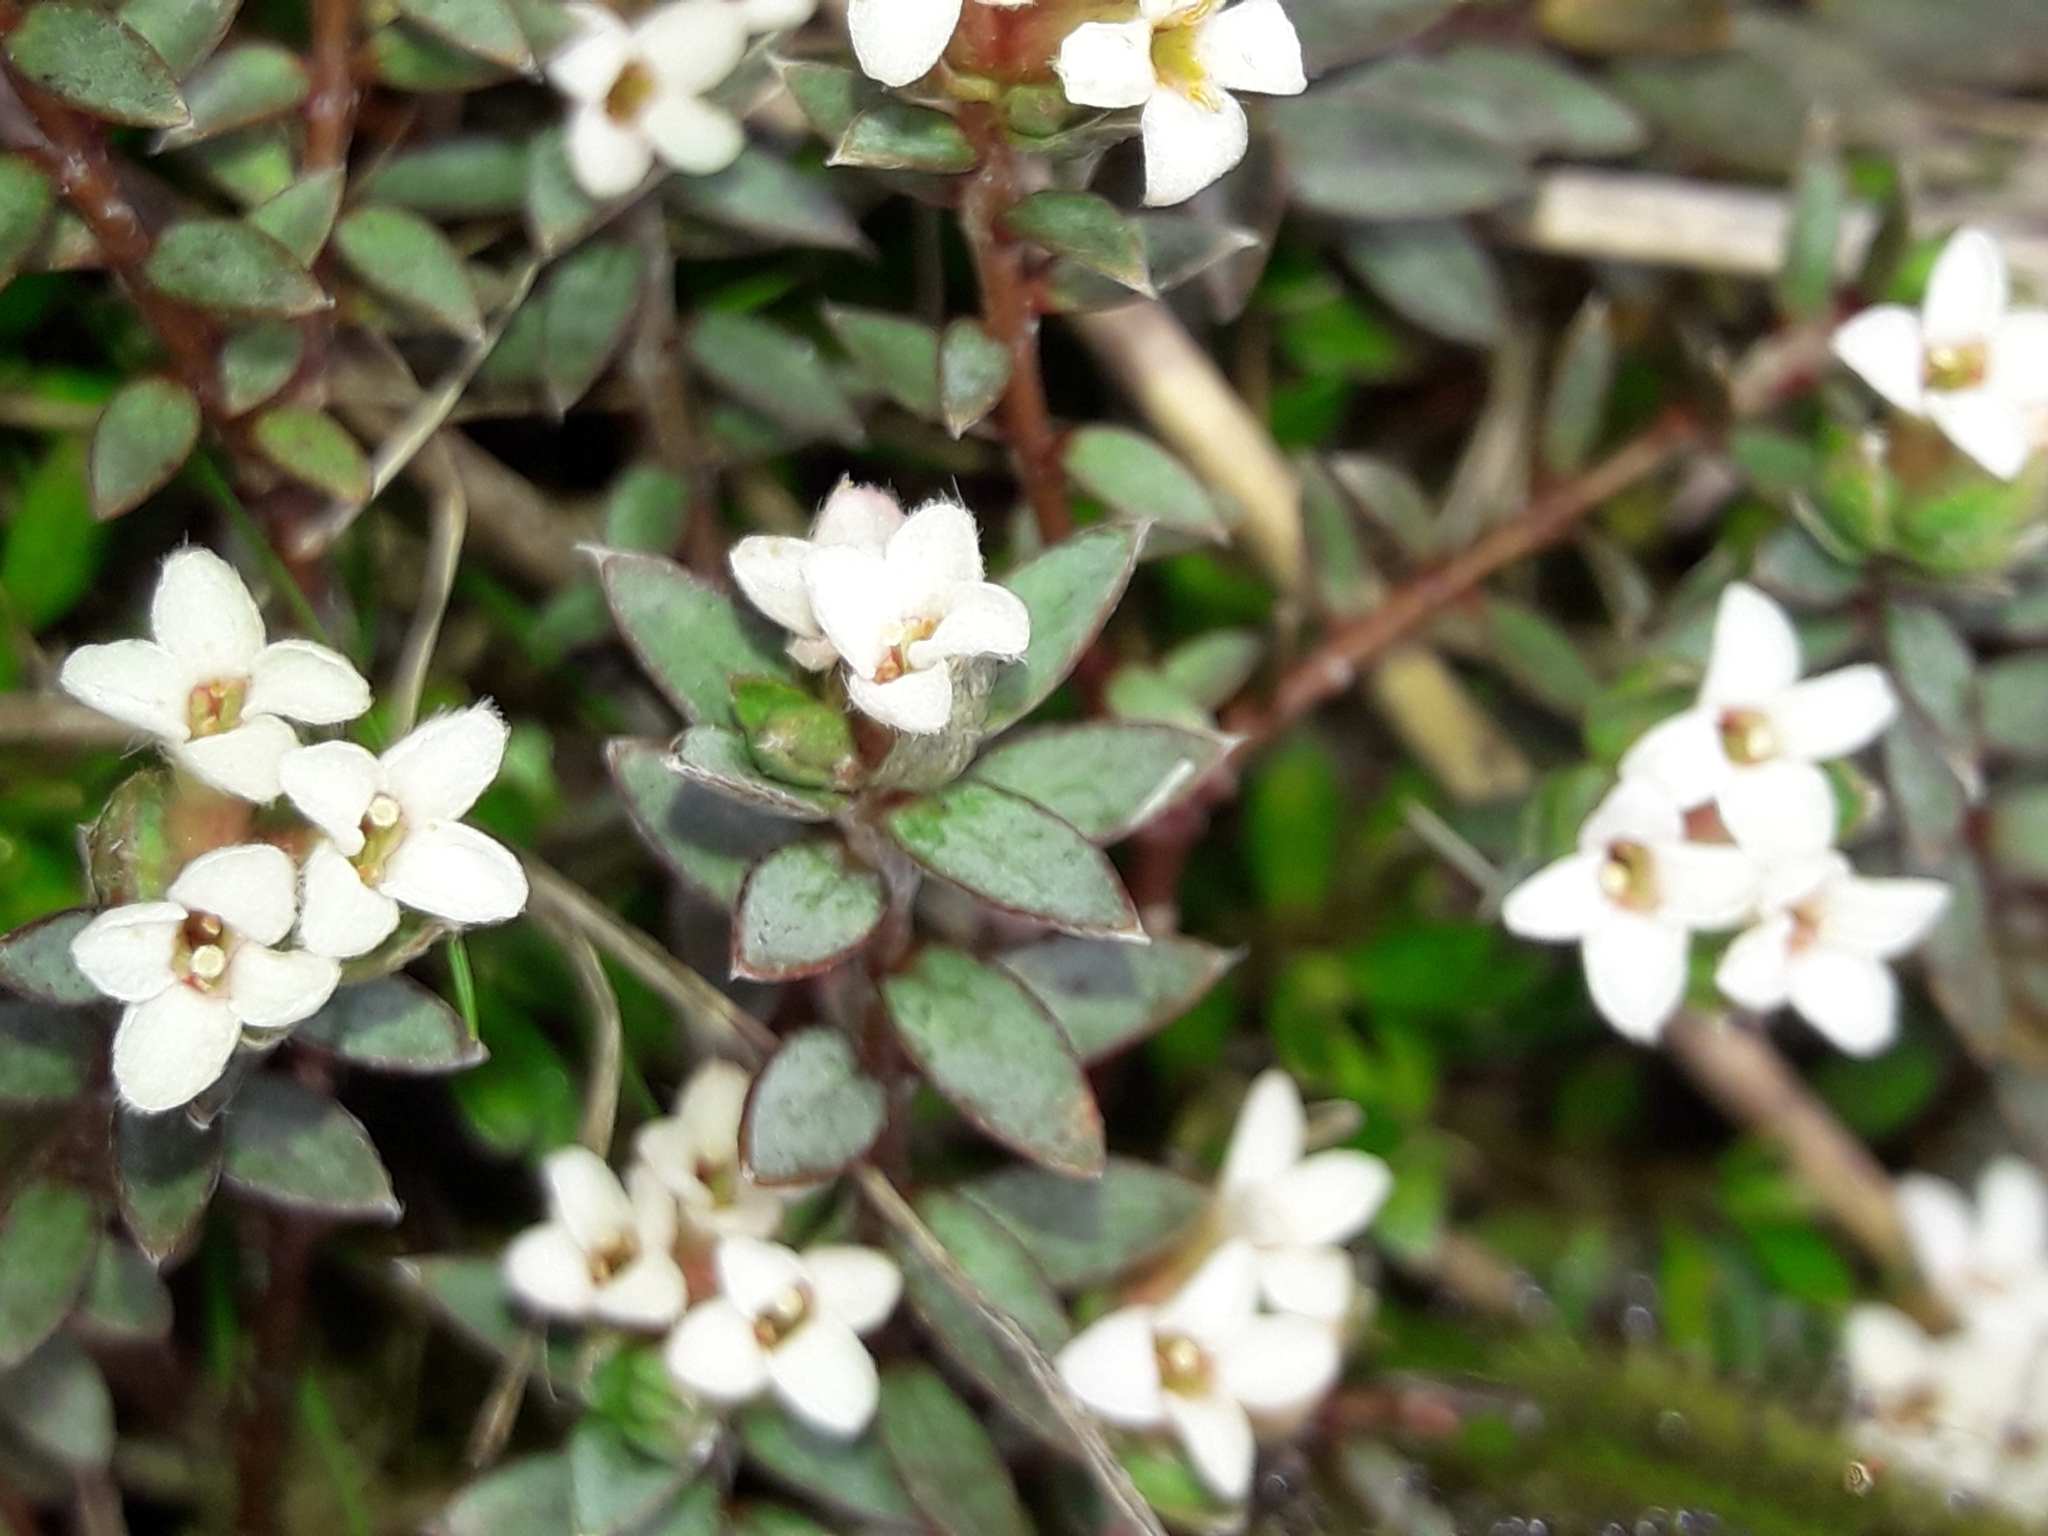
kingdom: Plantae
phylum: Tracheophyta
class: Magnoliopsida
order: Malvales
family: Thymelaeaceae
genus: Pimelea
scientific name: Pimelea oreophila
